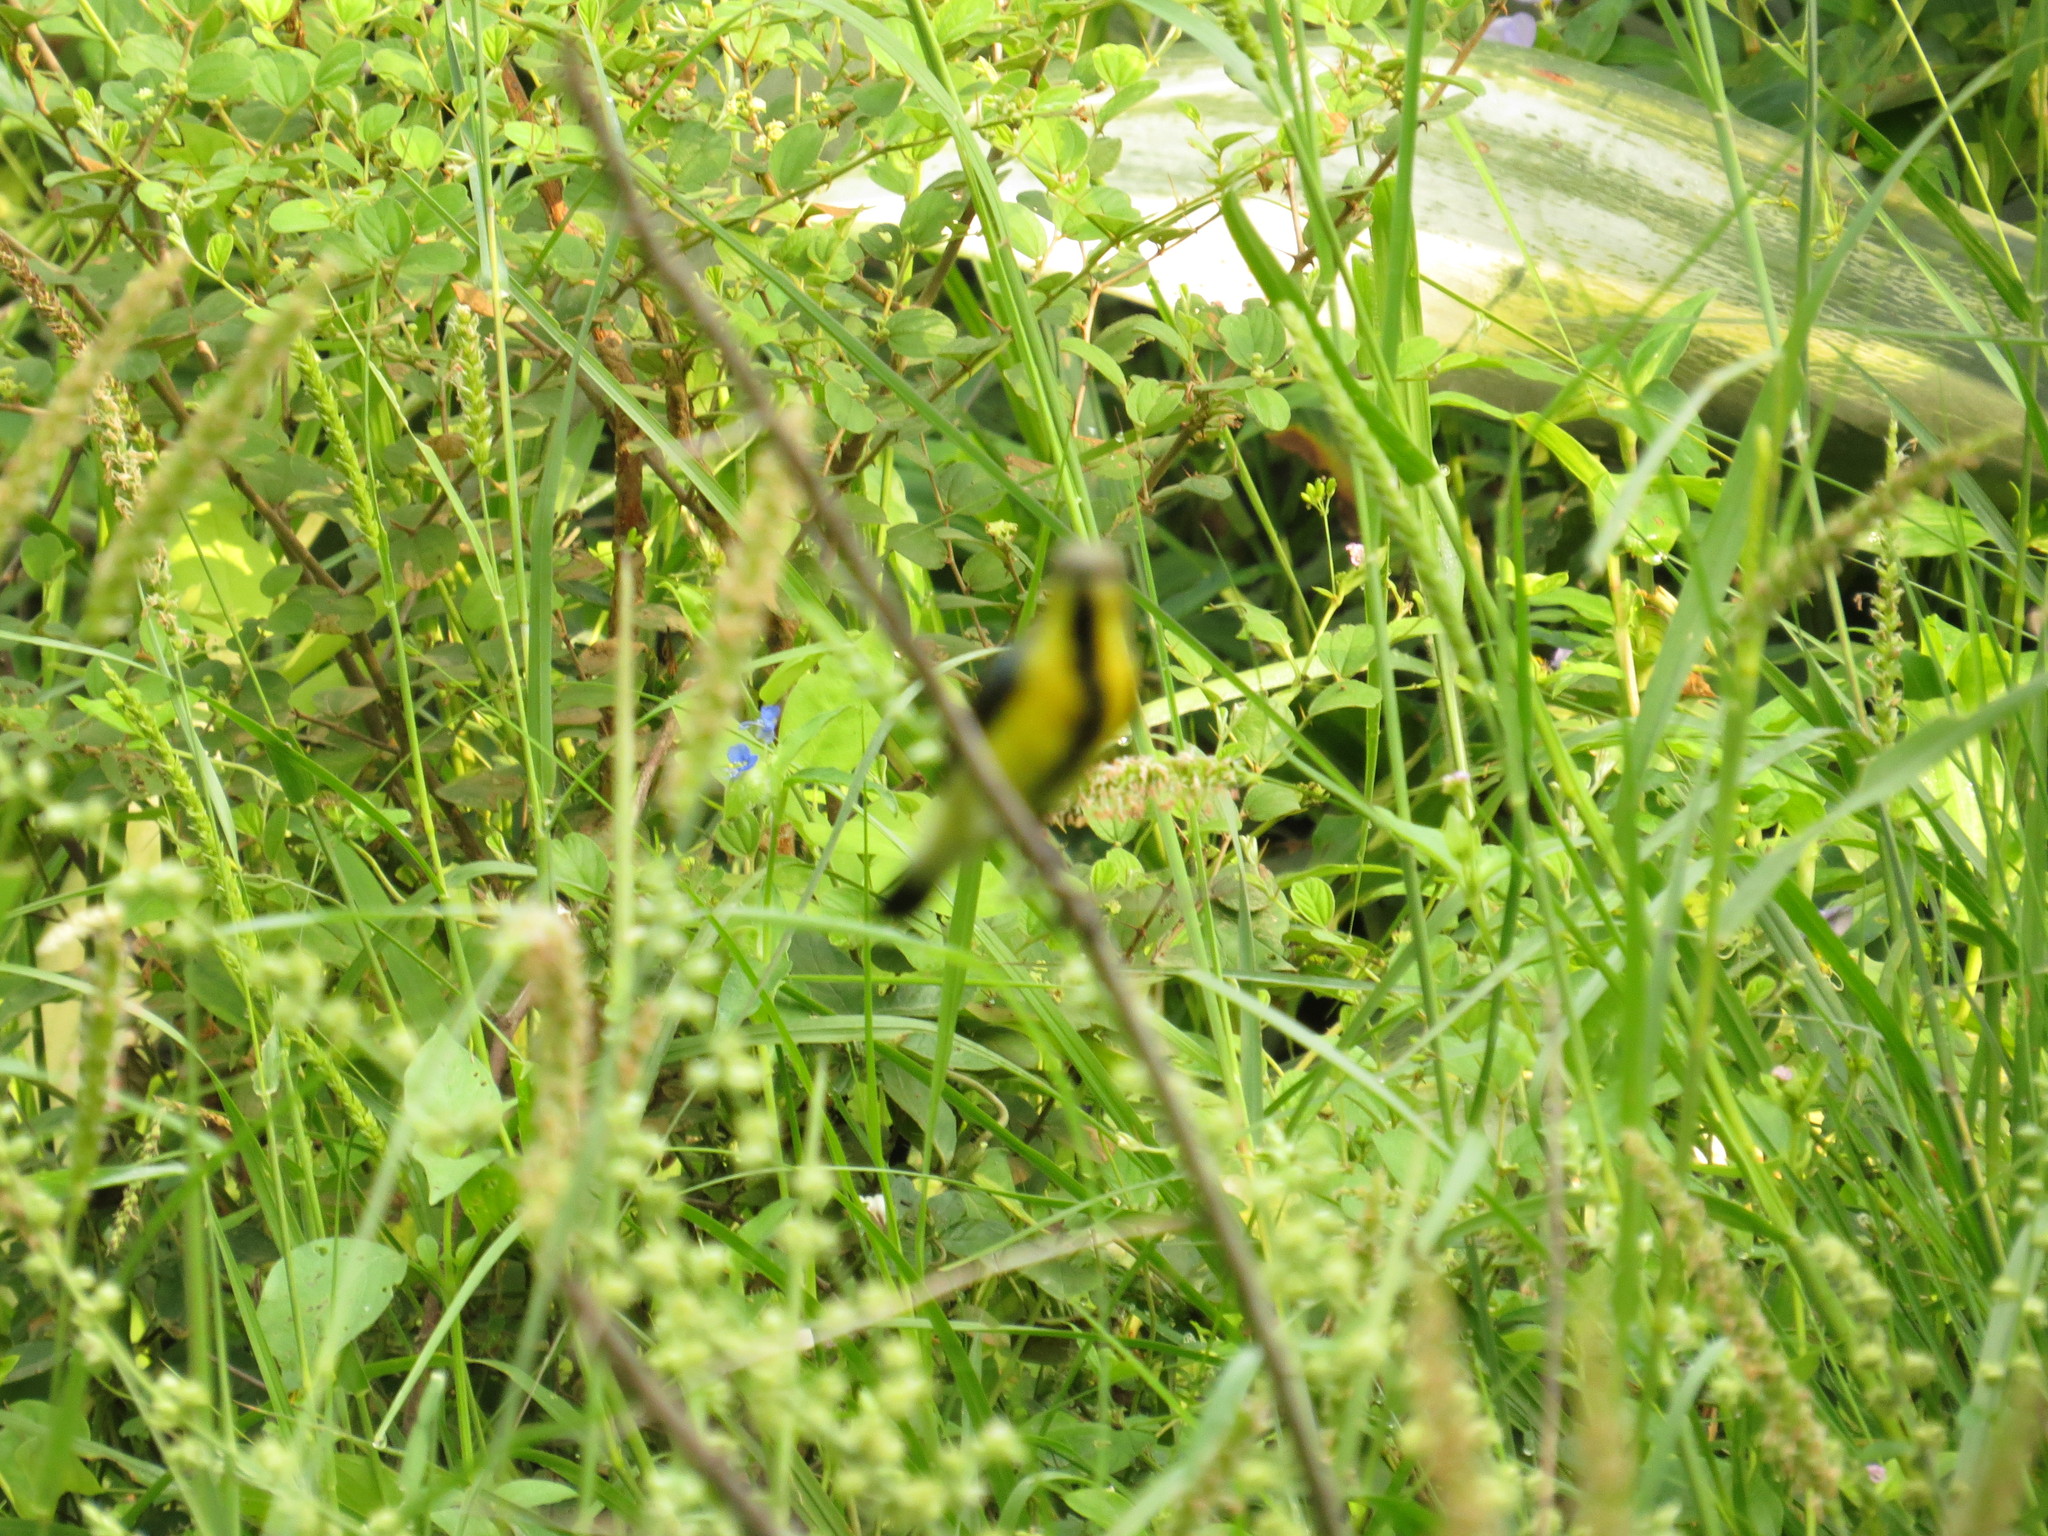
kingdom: Animalia
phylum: Chordata
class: Aves
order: Passeriformes
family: Nectariniidae
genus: Cinnyris
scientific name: Cinnyris asiaticus
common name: Purple sunbird
